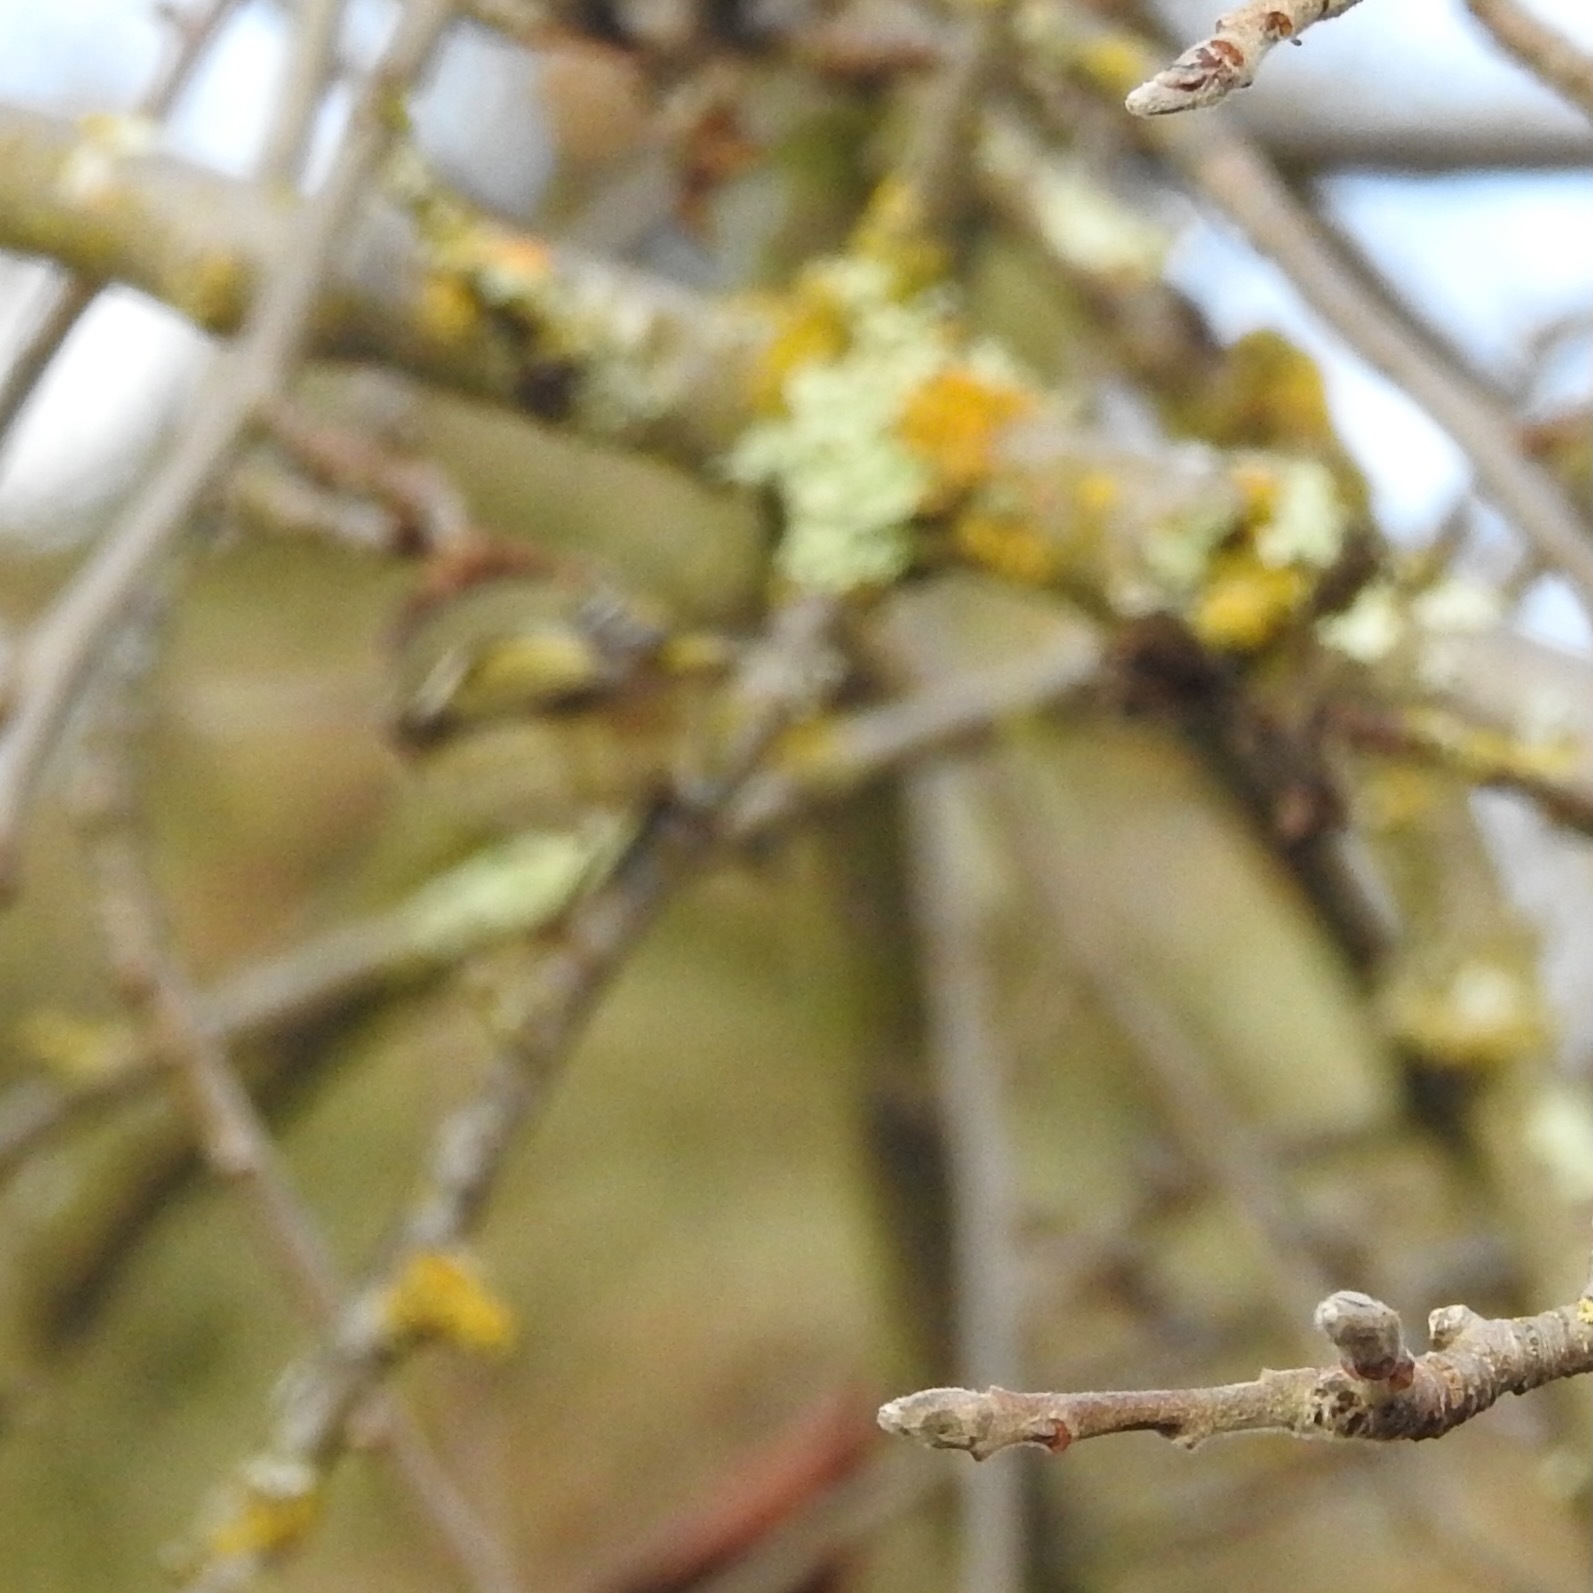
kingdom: Animalia
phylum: Chordata
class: Aves
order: Passeriformes
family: Regulidae
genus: Regulus
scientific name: Regulus calendula
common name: Ruby-crowned kinglet
